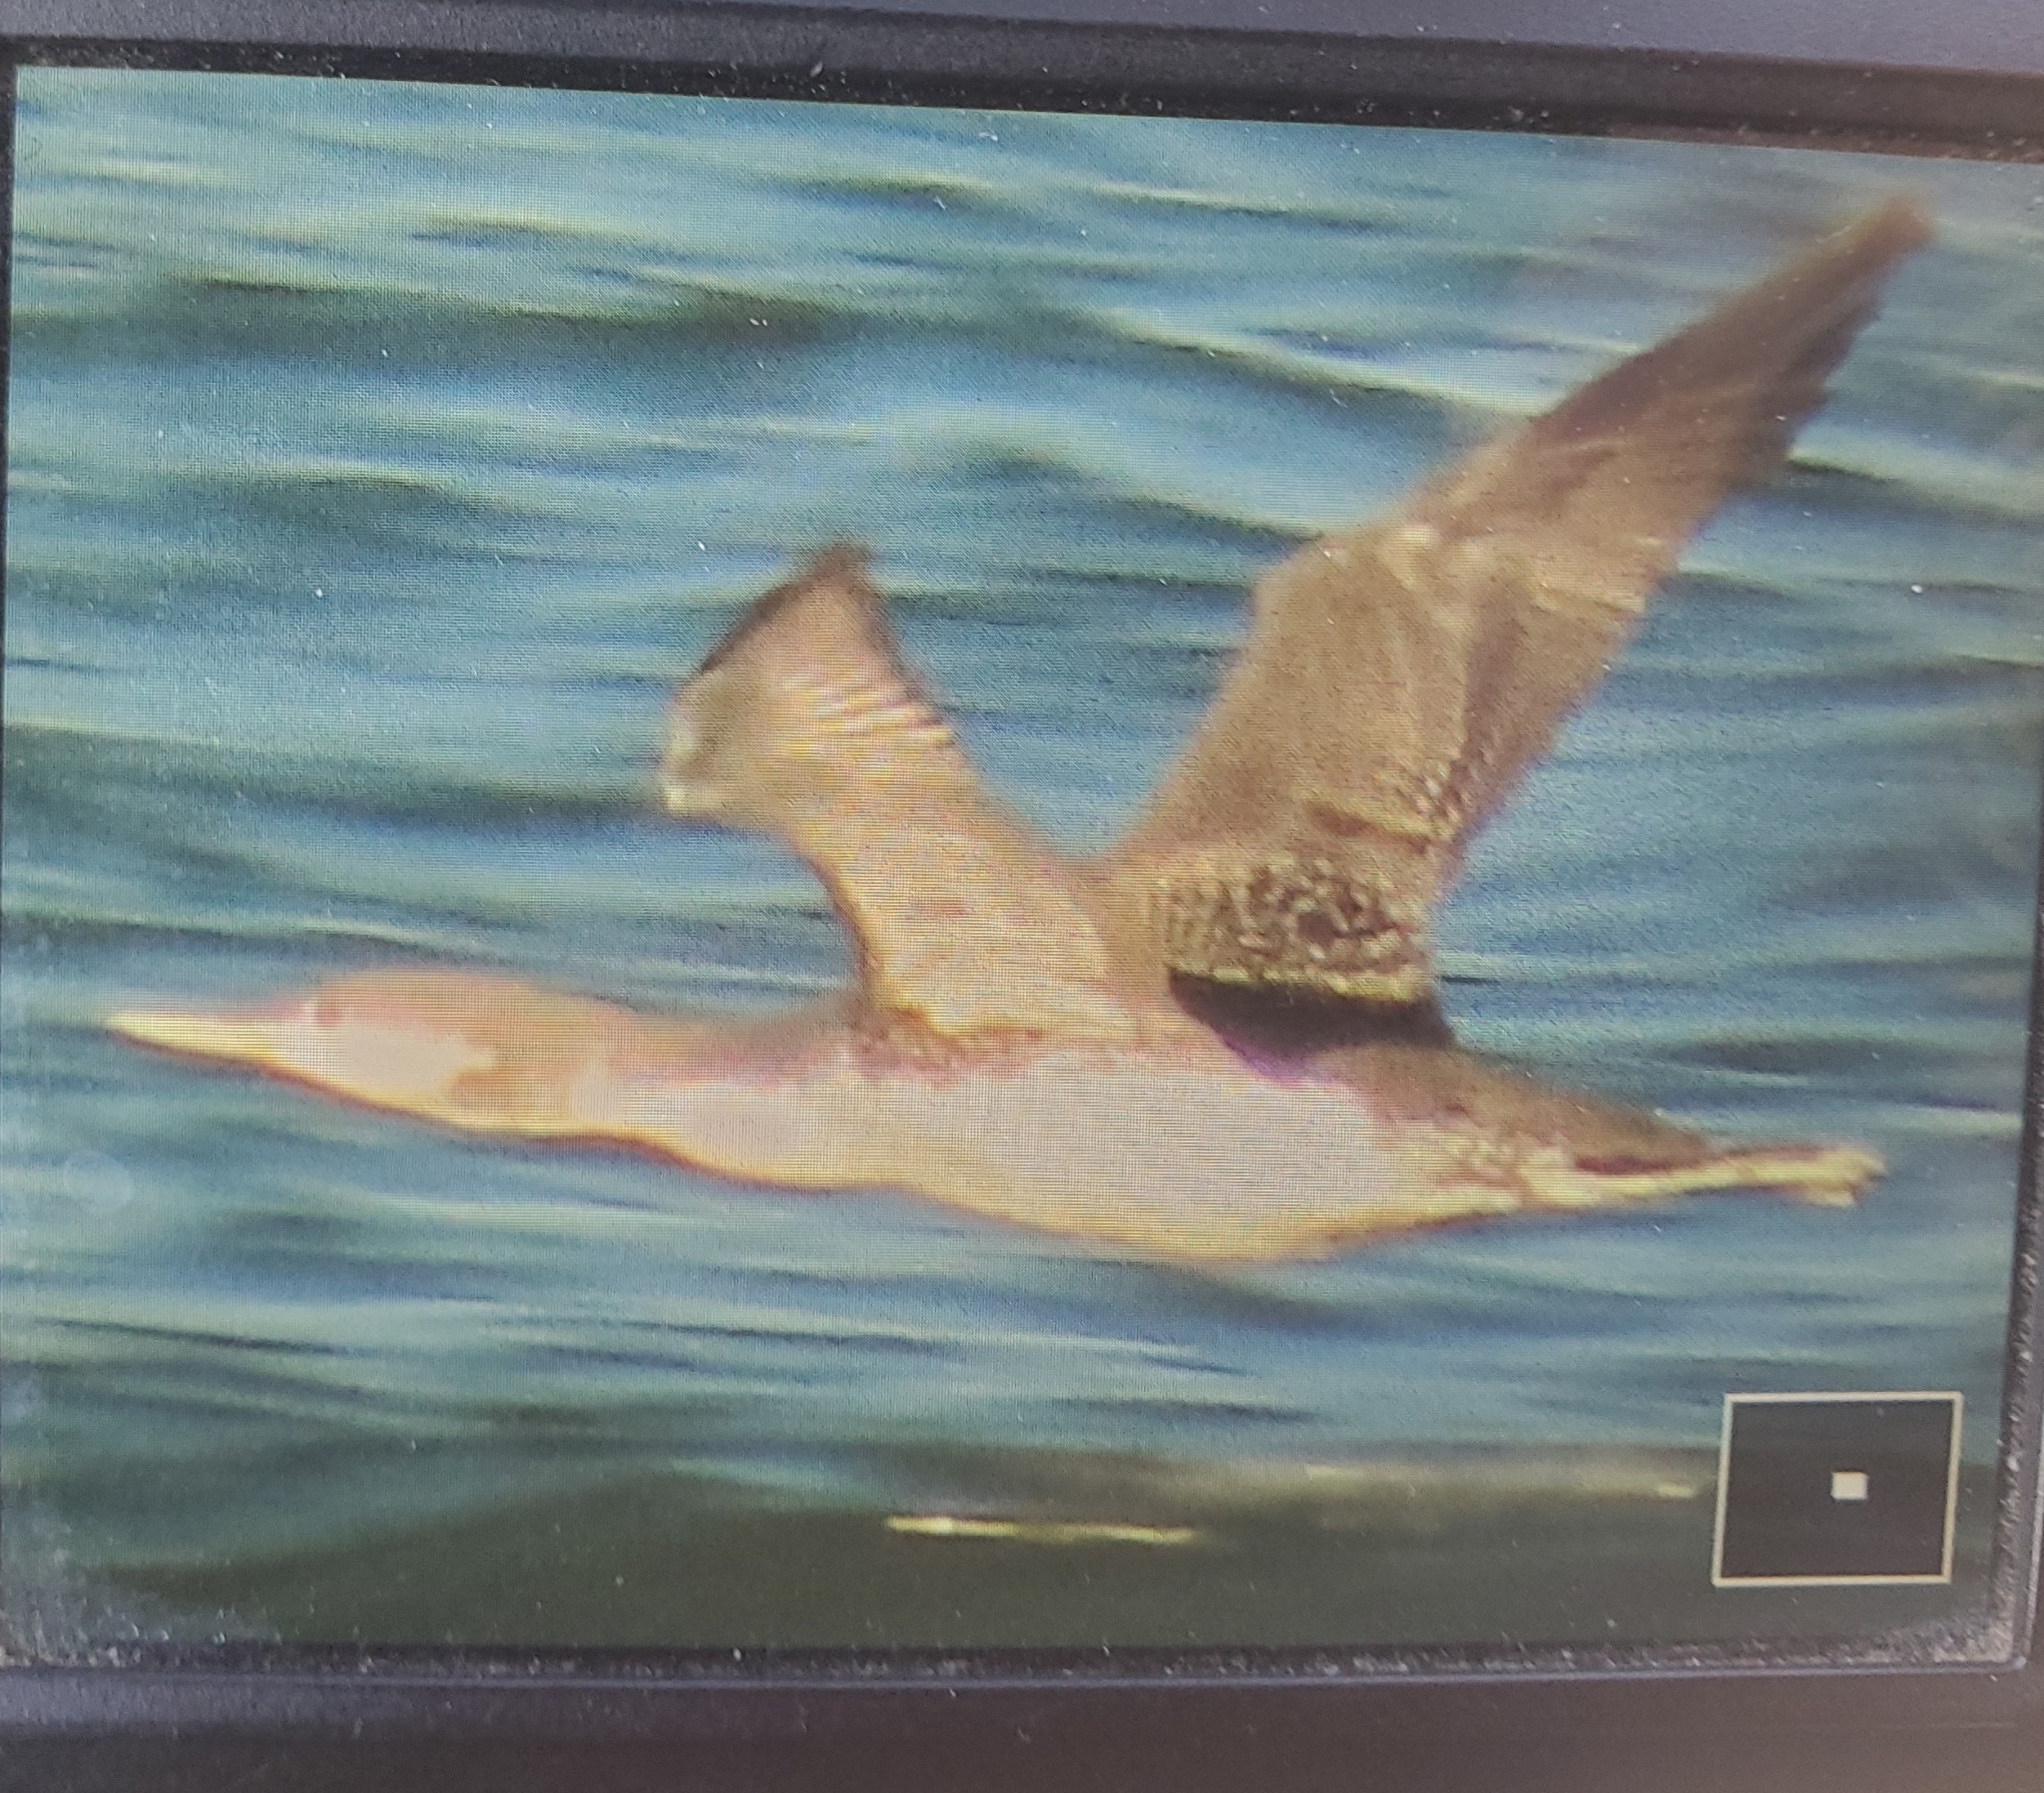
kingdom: Animalia
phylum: Chordata
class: Aves
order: Gaviiformes
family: Gaviidae
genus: Gavia
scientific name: Gavia immer
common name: Common loon
